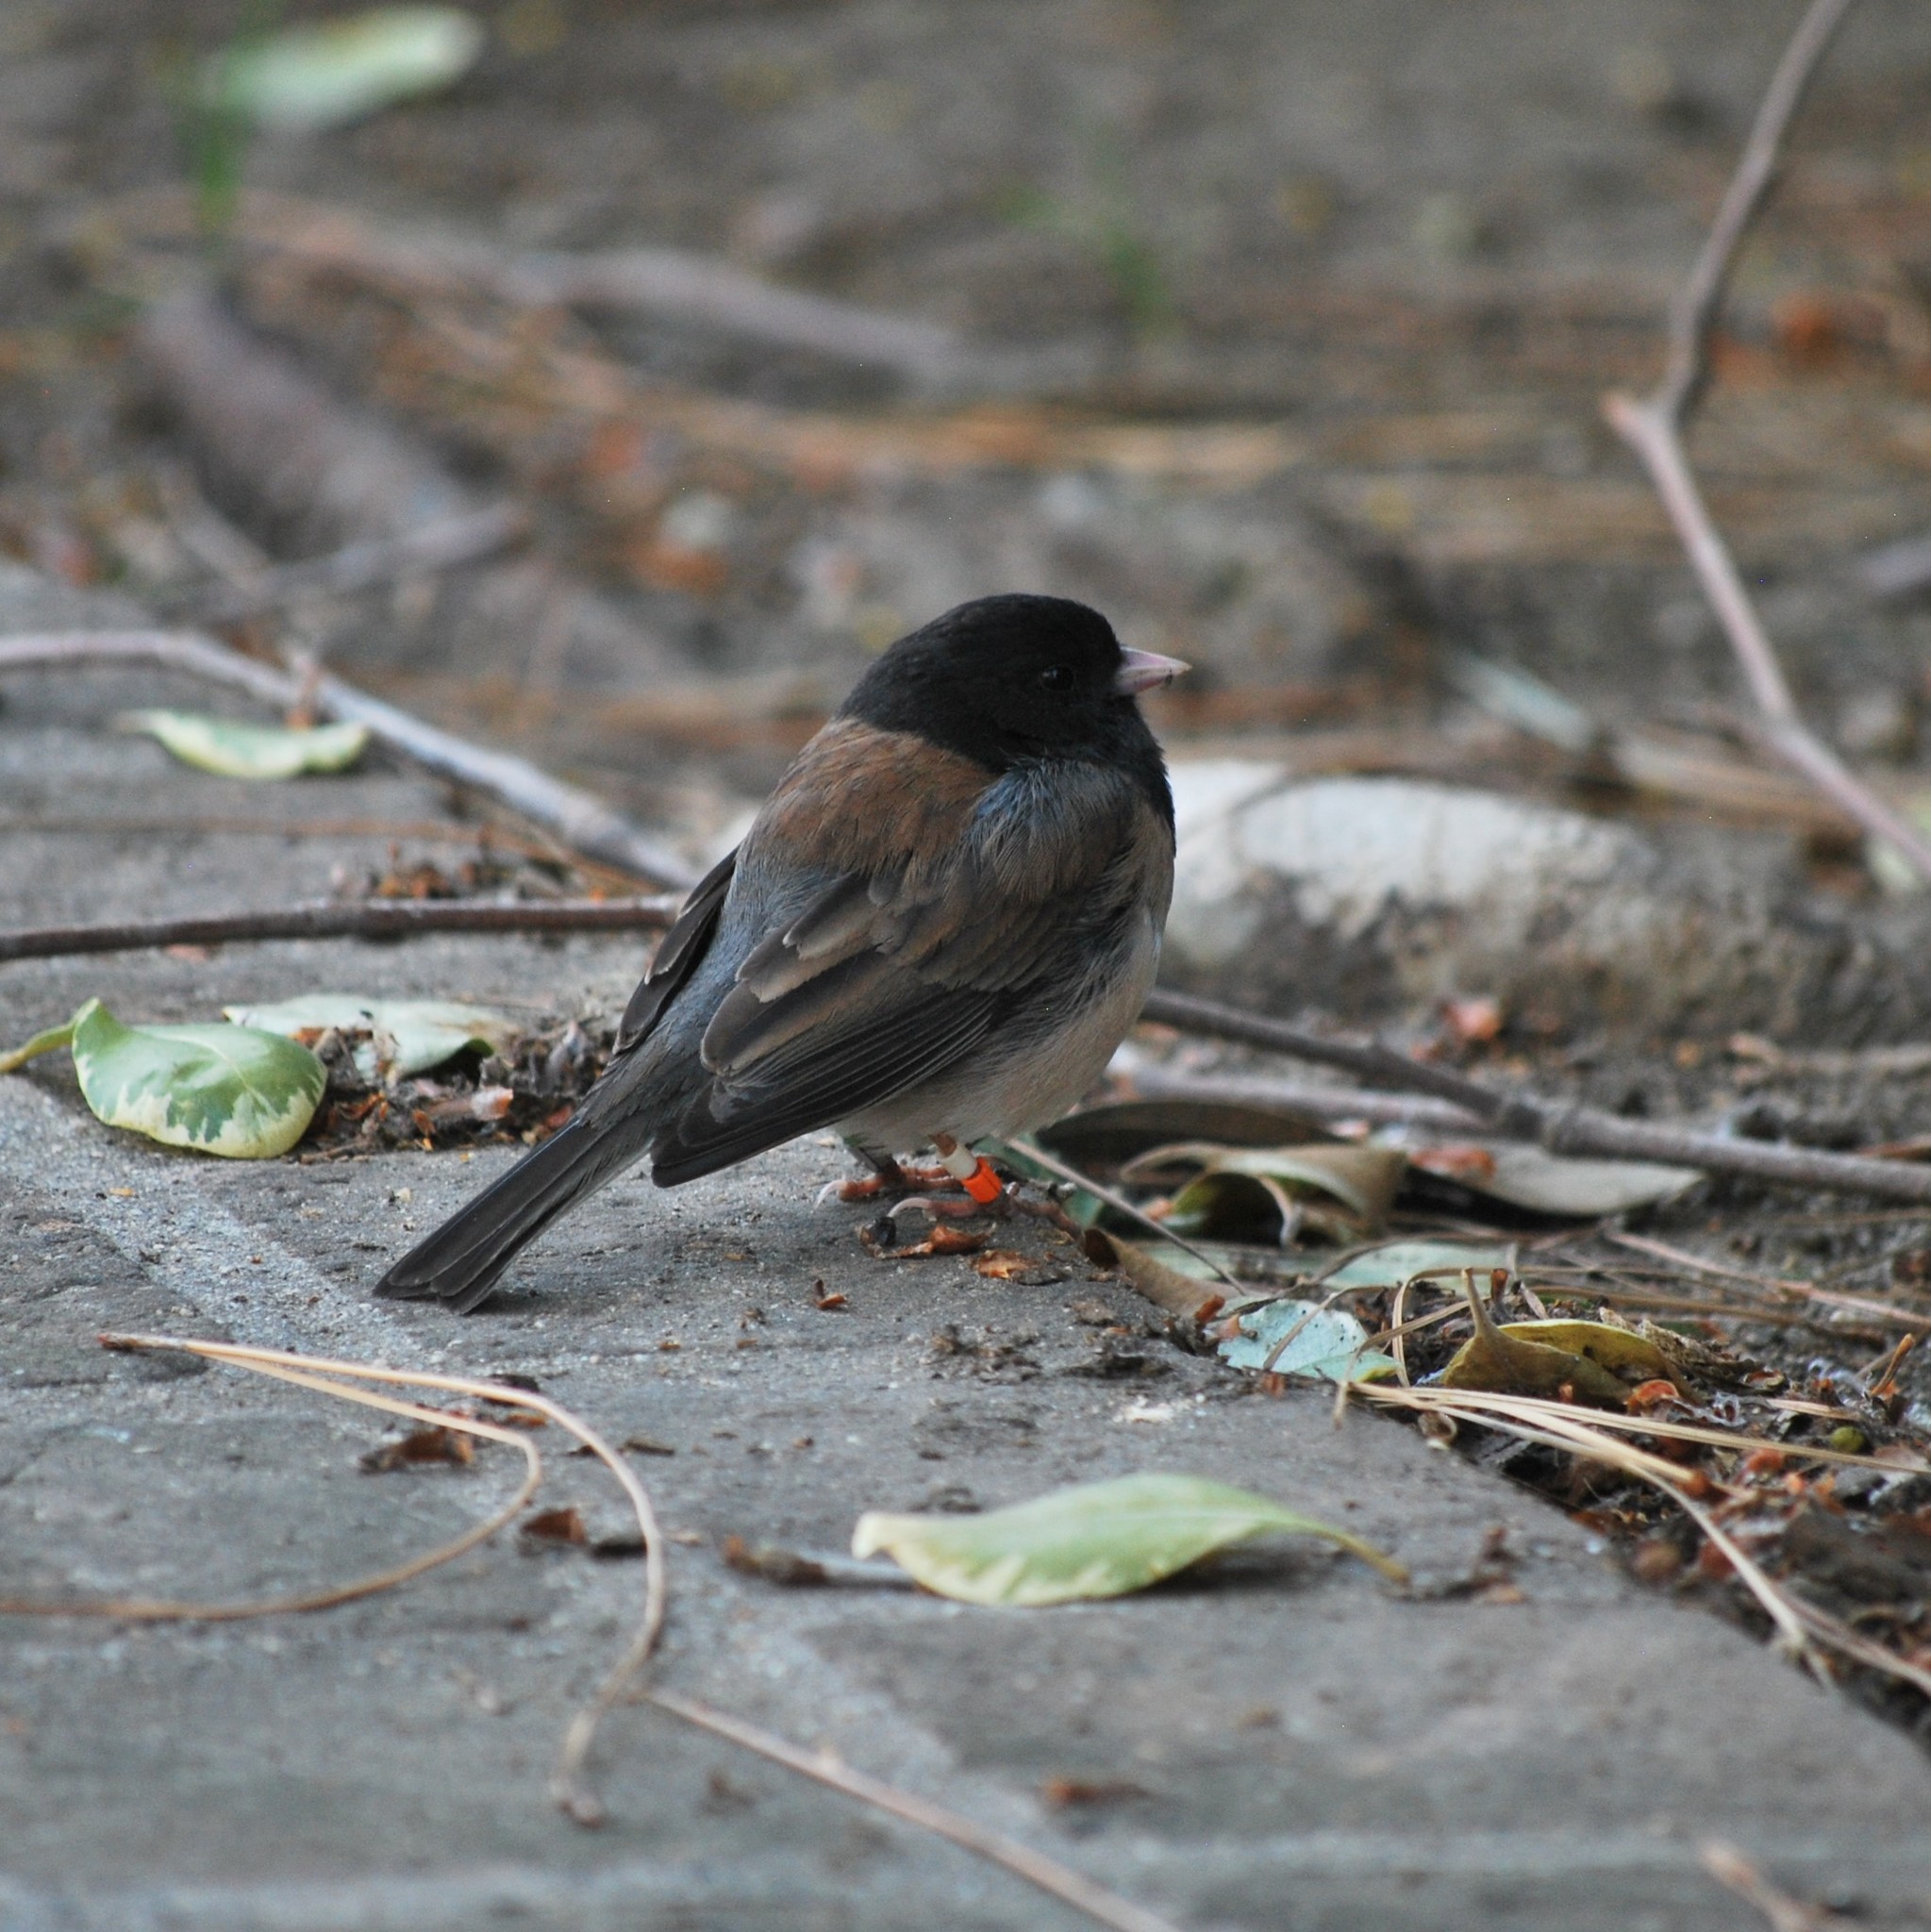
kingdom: Animalia
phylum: Chordata
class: Aves
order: Passeriformes
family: Passerellidae
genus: Junco
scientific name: Junco hyemalis
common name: Dark-eyed junco
